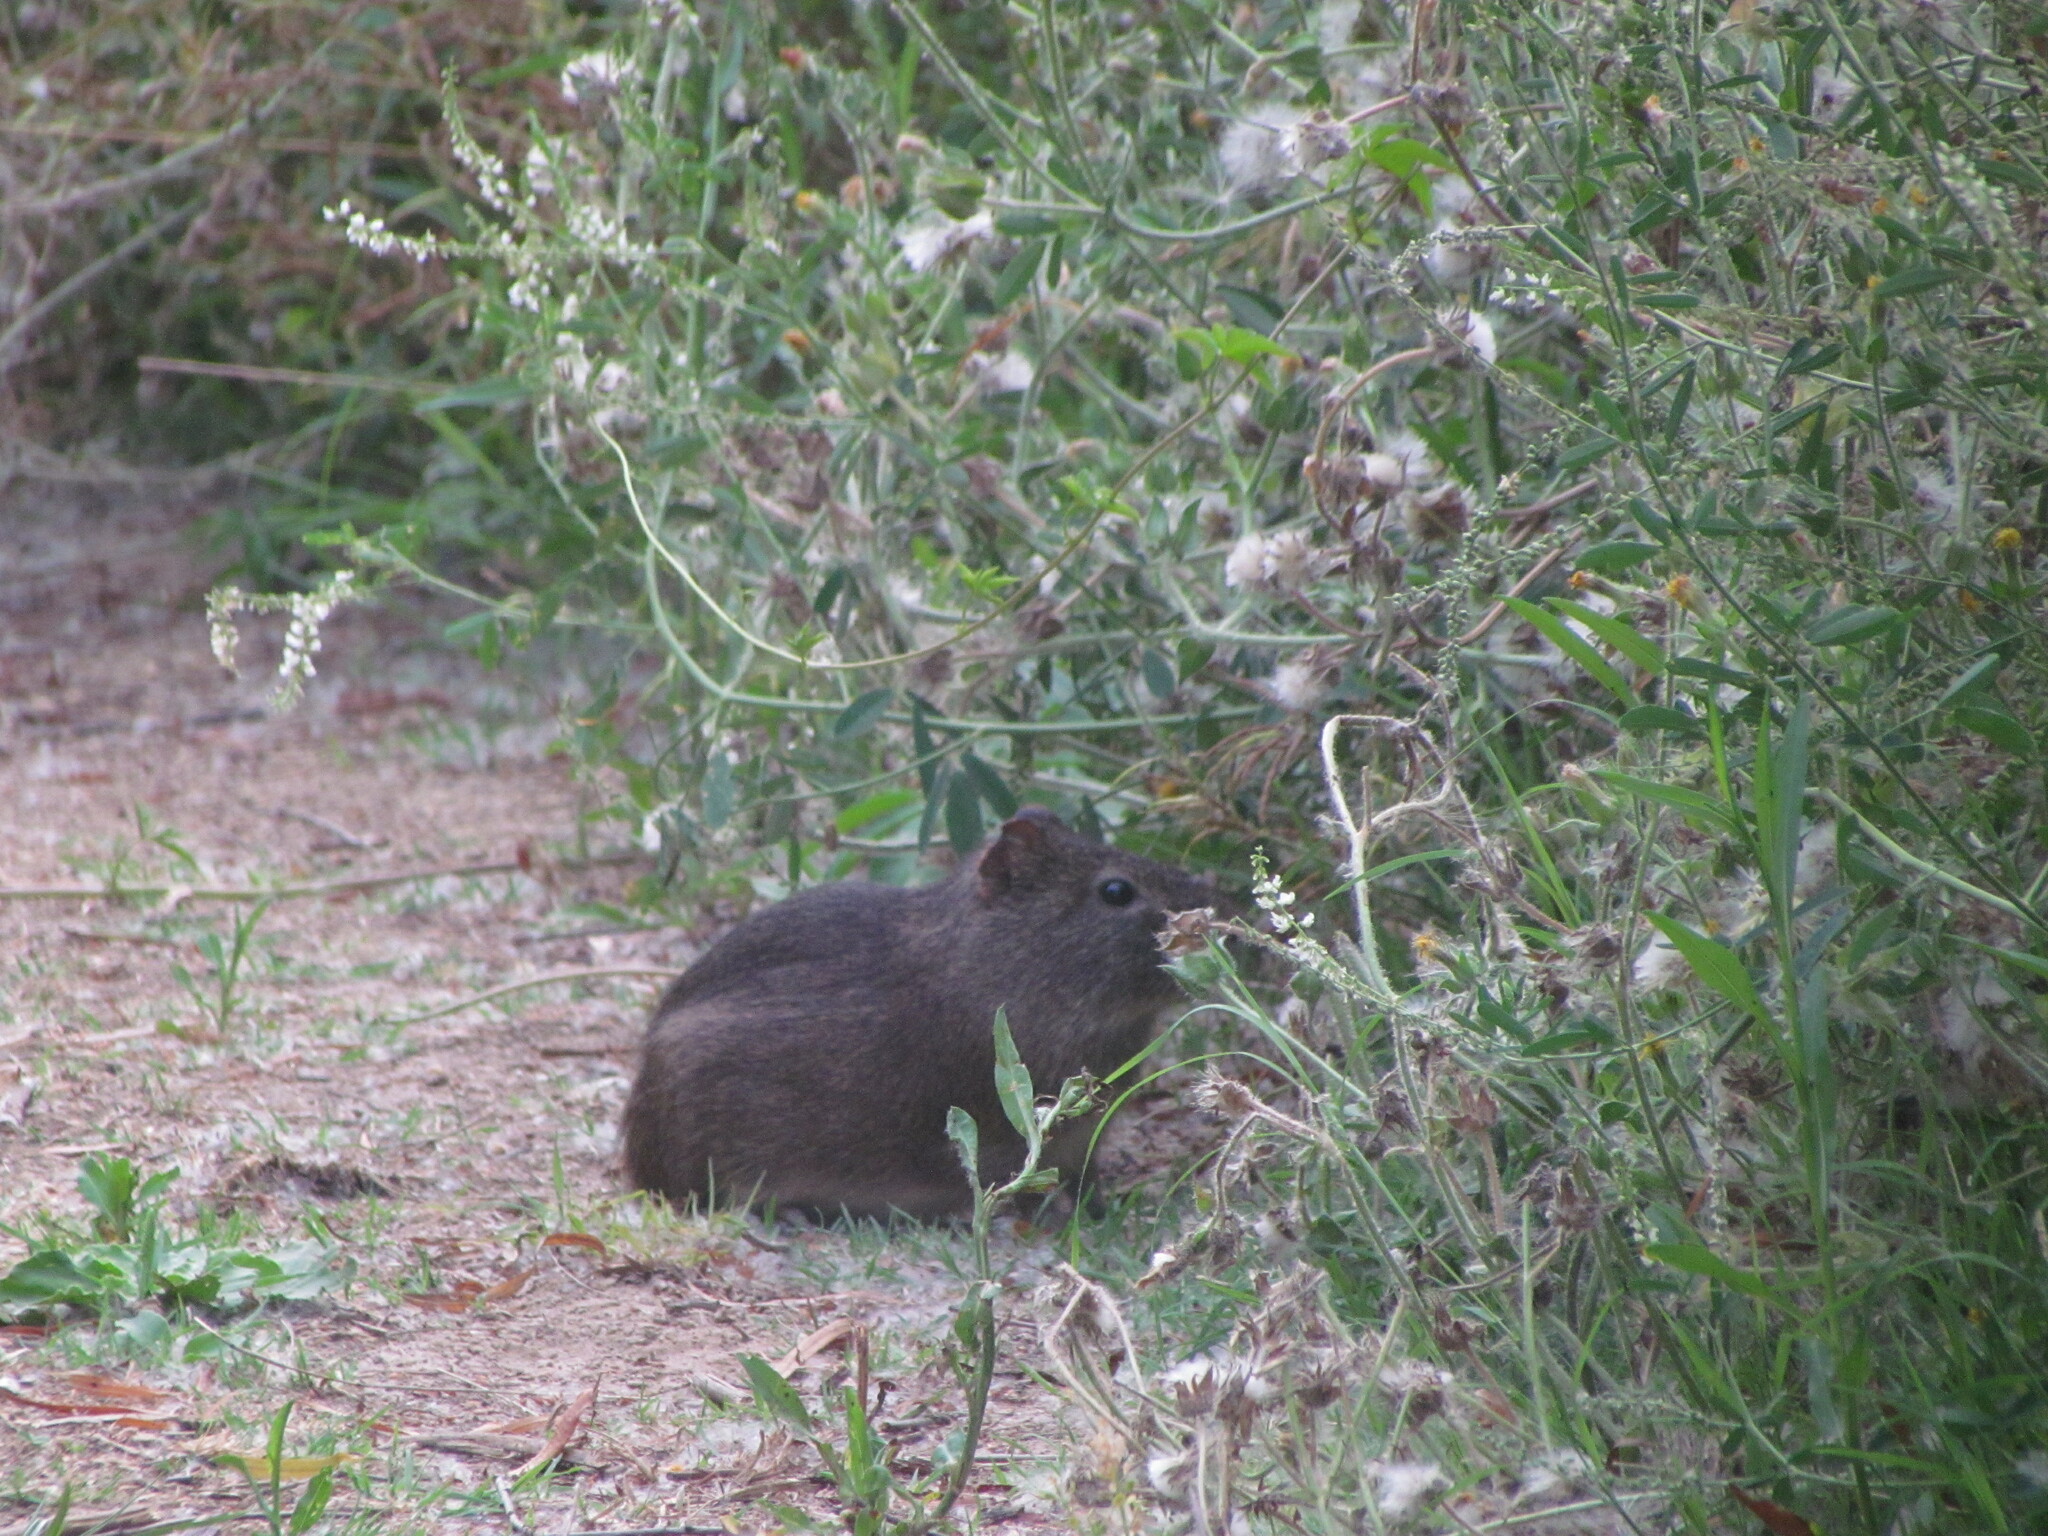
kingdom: Animalia
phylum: Chordata
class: Mammalia
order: Rodentia
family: Caviidae
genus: Cavia
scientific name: Cavia aperea
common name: Brazilian guinea pig
